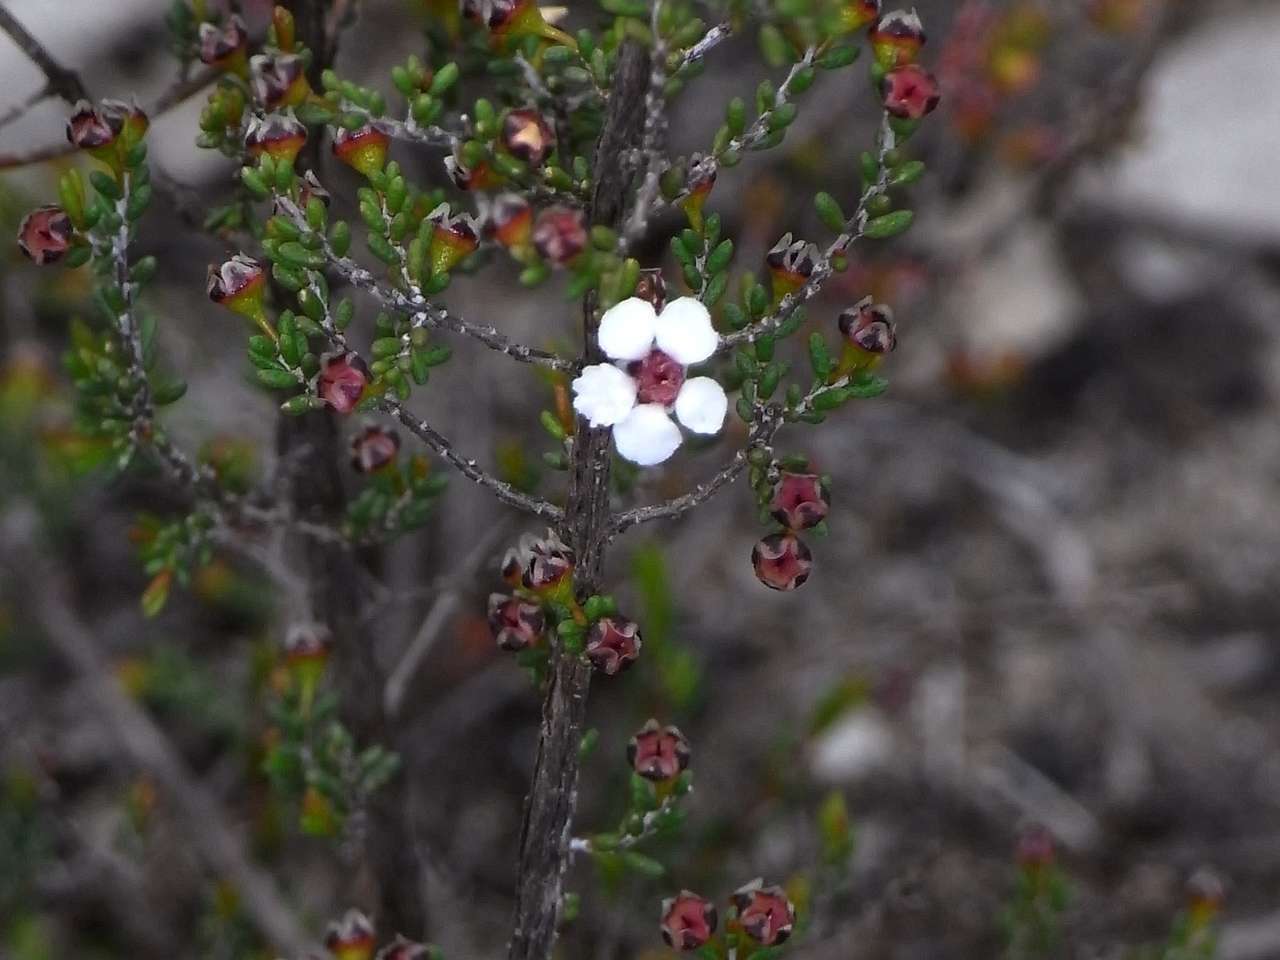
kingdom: Plantae
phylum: Tracheophyta
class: Magnoliopsida
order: Myrtales
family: Myrtaceae
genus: Rinzia
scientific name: Rinzia orientalis
